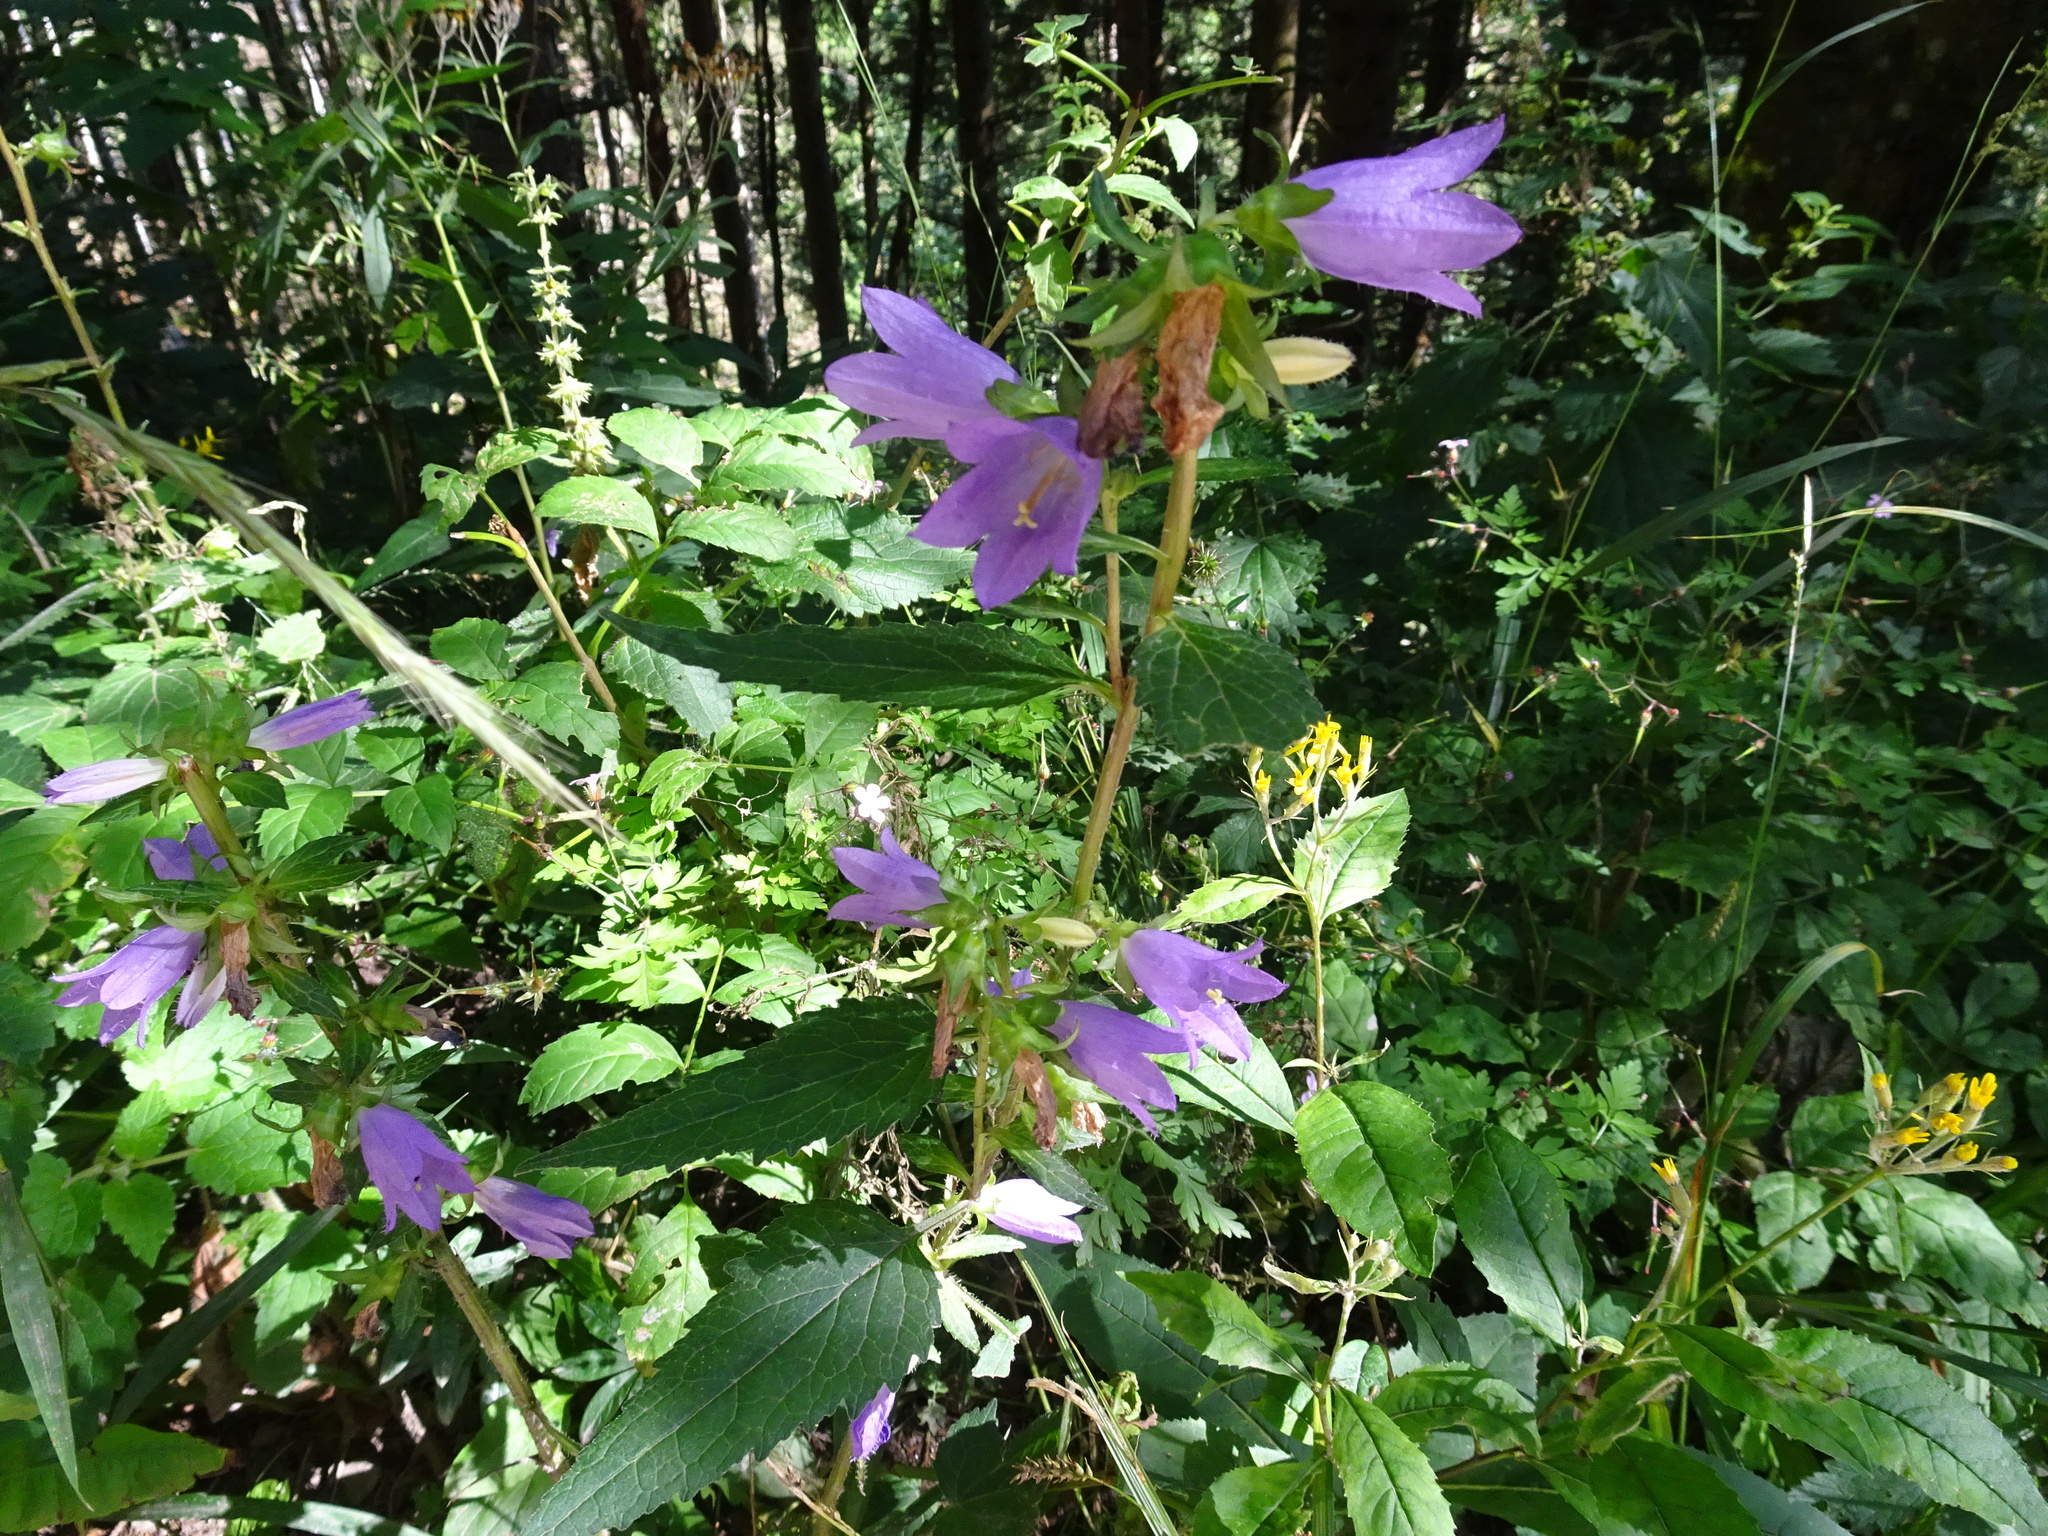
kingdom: Plantae
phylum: Tracheophyta
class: Magnoliopsida
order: Asterales
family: Campanulaceae
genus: Campanula
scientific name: Campanula trachelium
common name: Nettle-leaved bellflower
